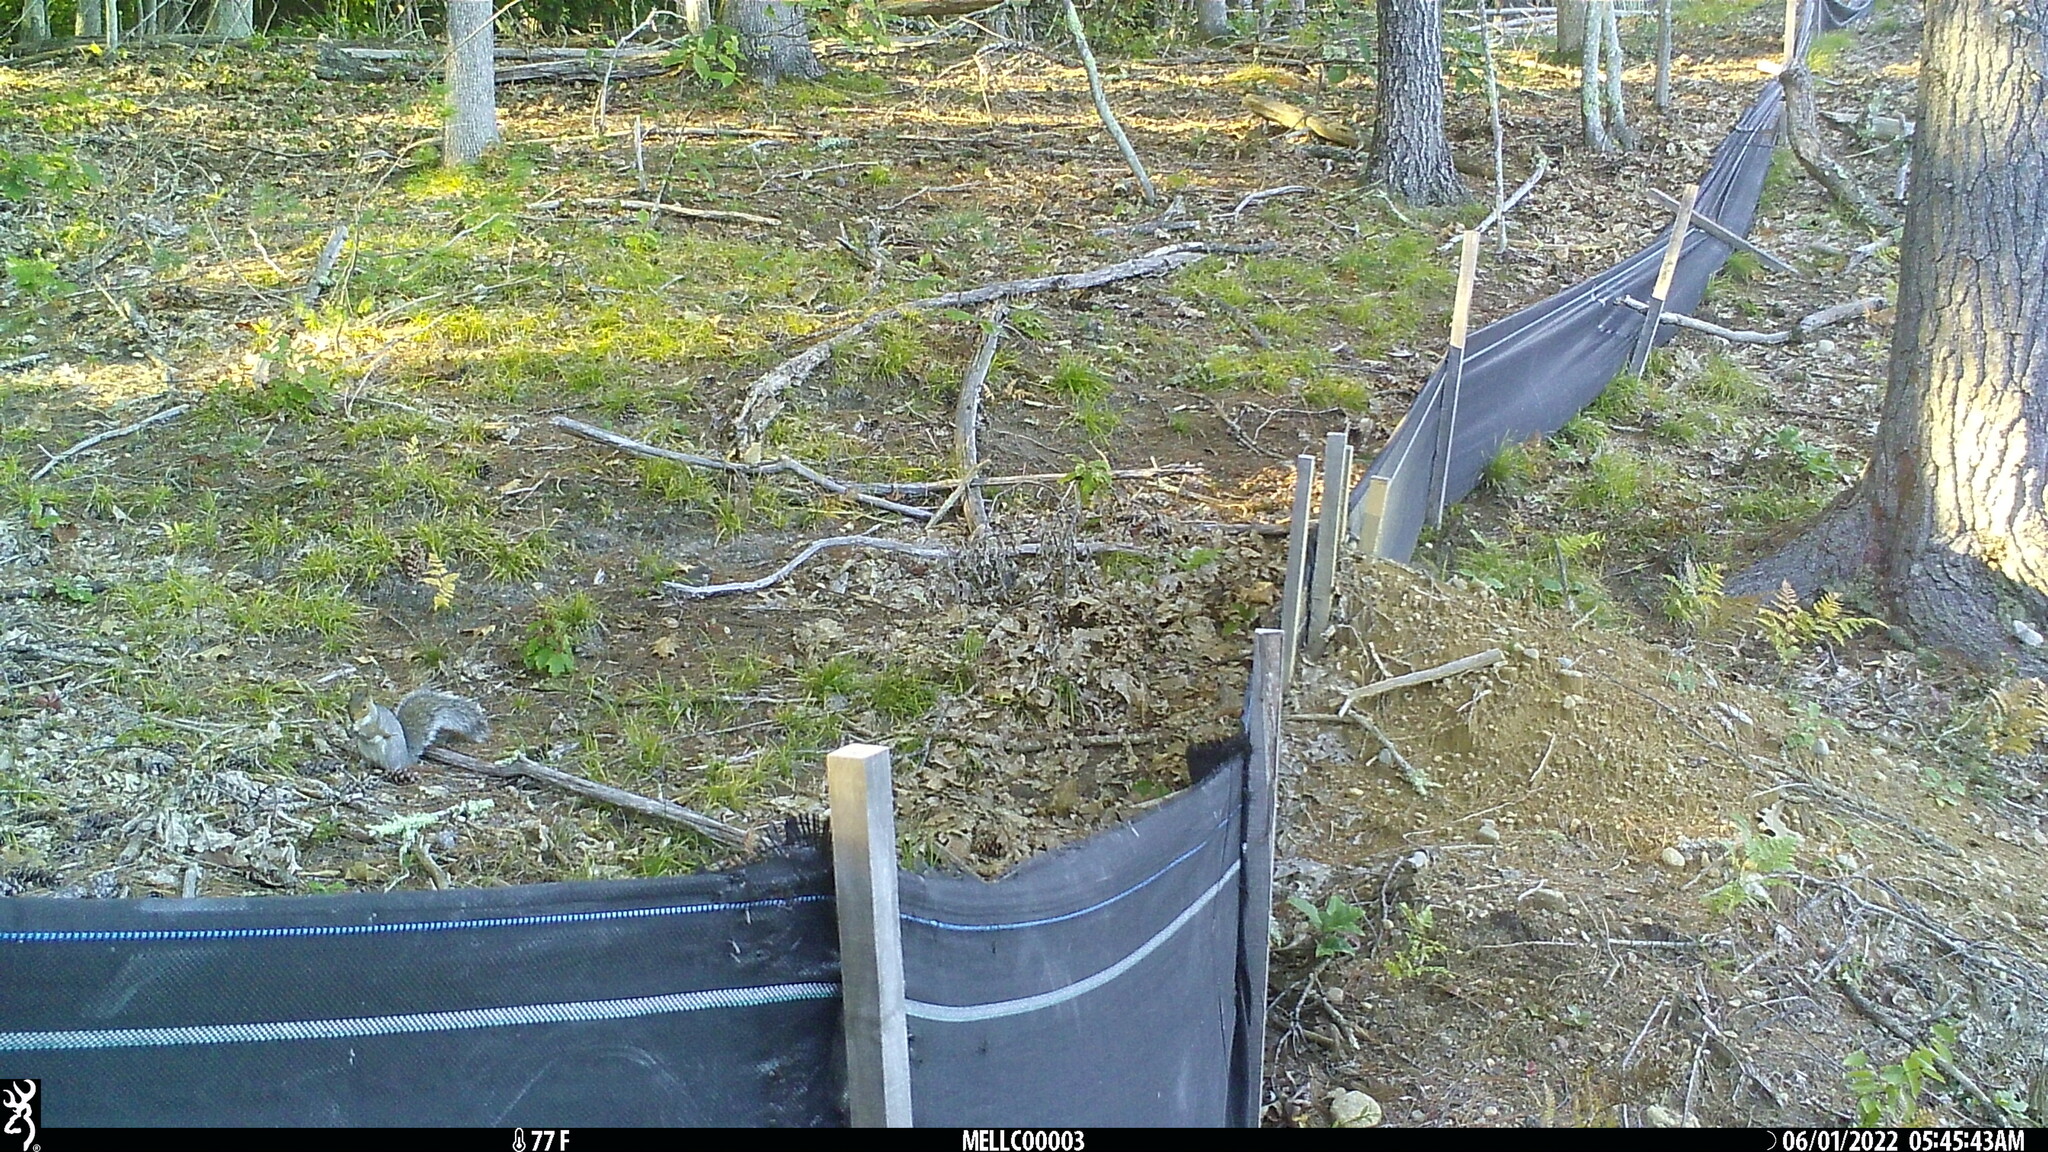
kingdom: Animalia
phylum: Chordata
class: Mammalia
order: Rodentia
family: Sciuridae
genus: Sciurus
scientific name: Sciurus carolinensis
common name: Eastern gray squirrel
